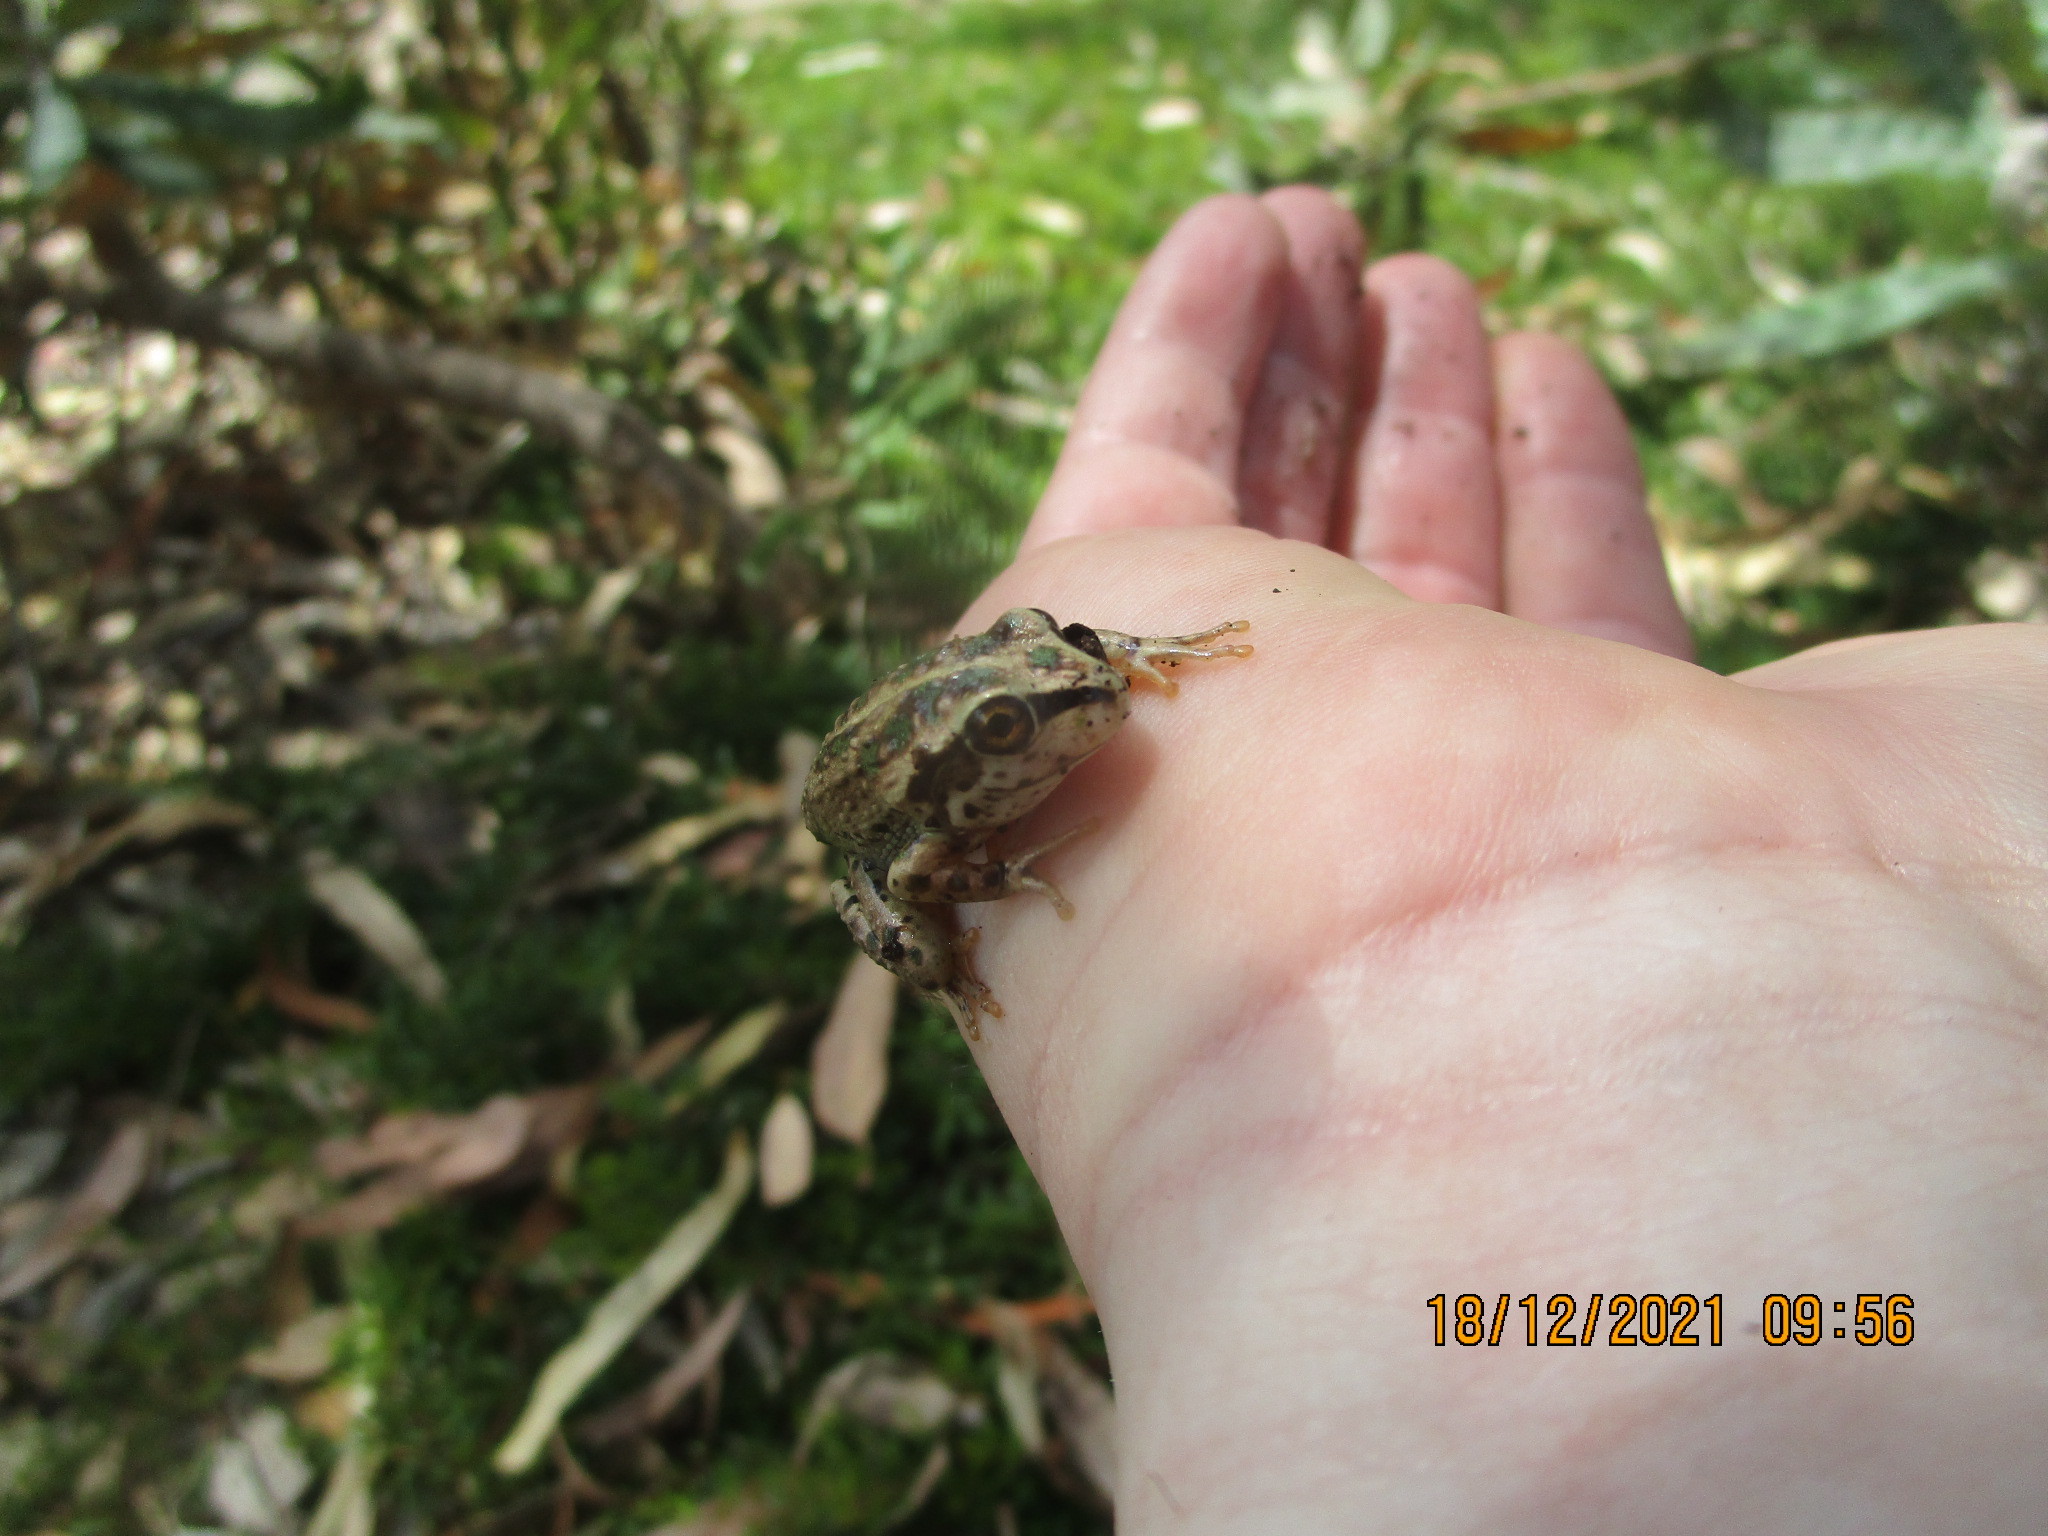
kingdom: Animalia
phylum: Chordata
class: Amphibia
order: Anura
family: Pelodryadidae
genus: Ranoidea
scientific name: Ranoidea moorei
